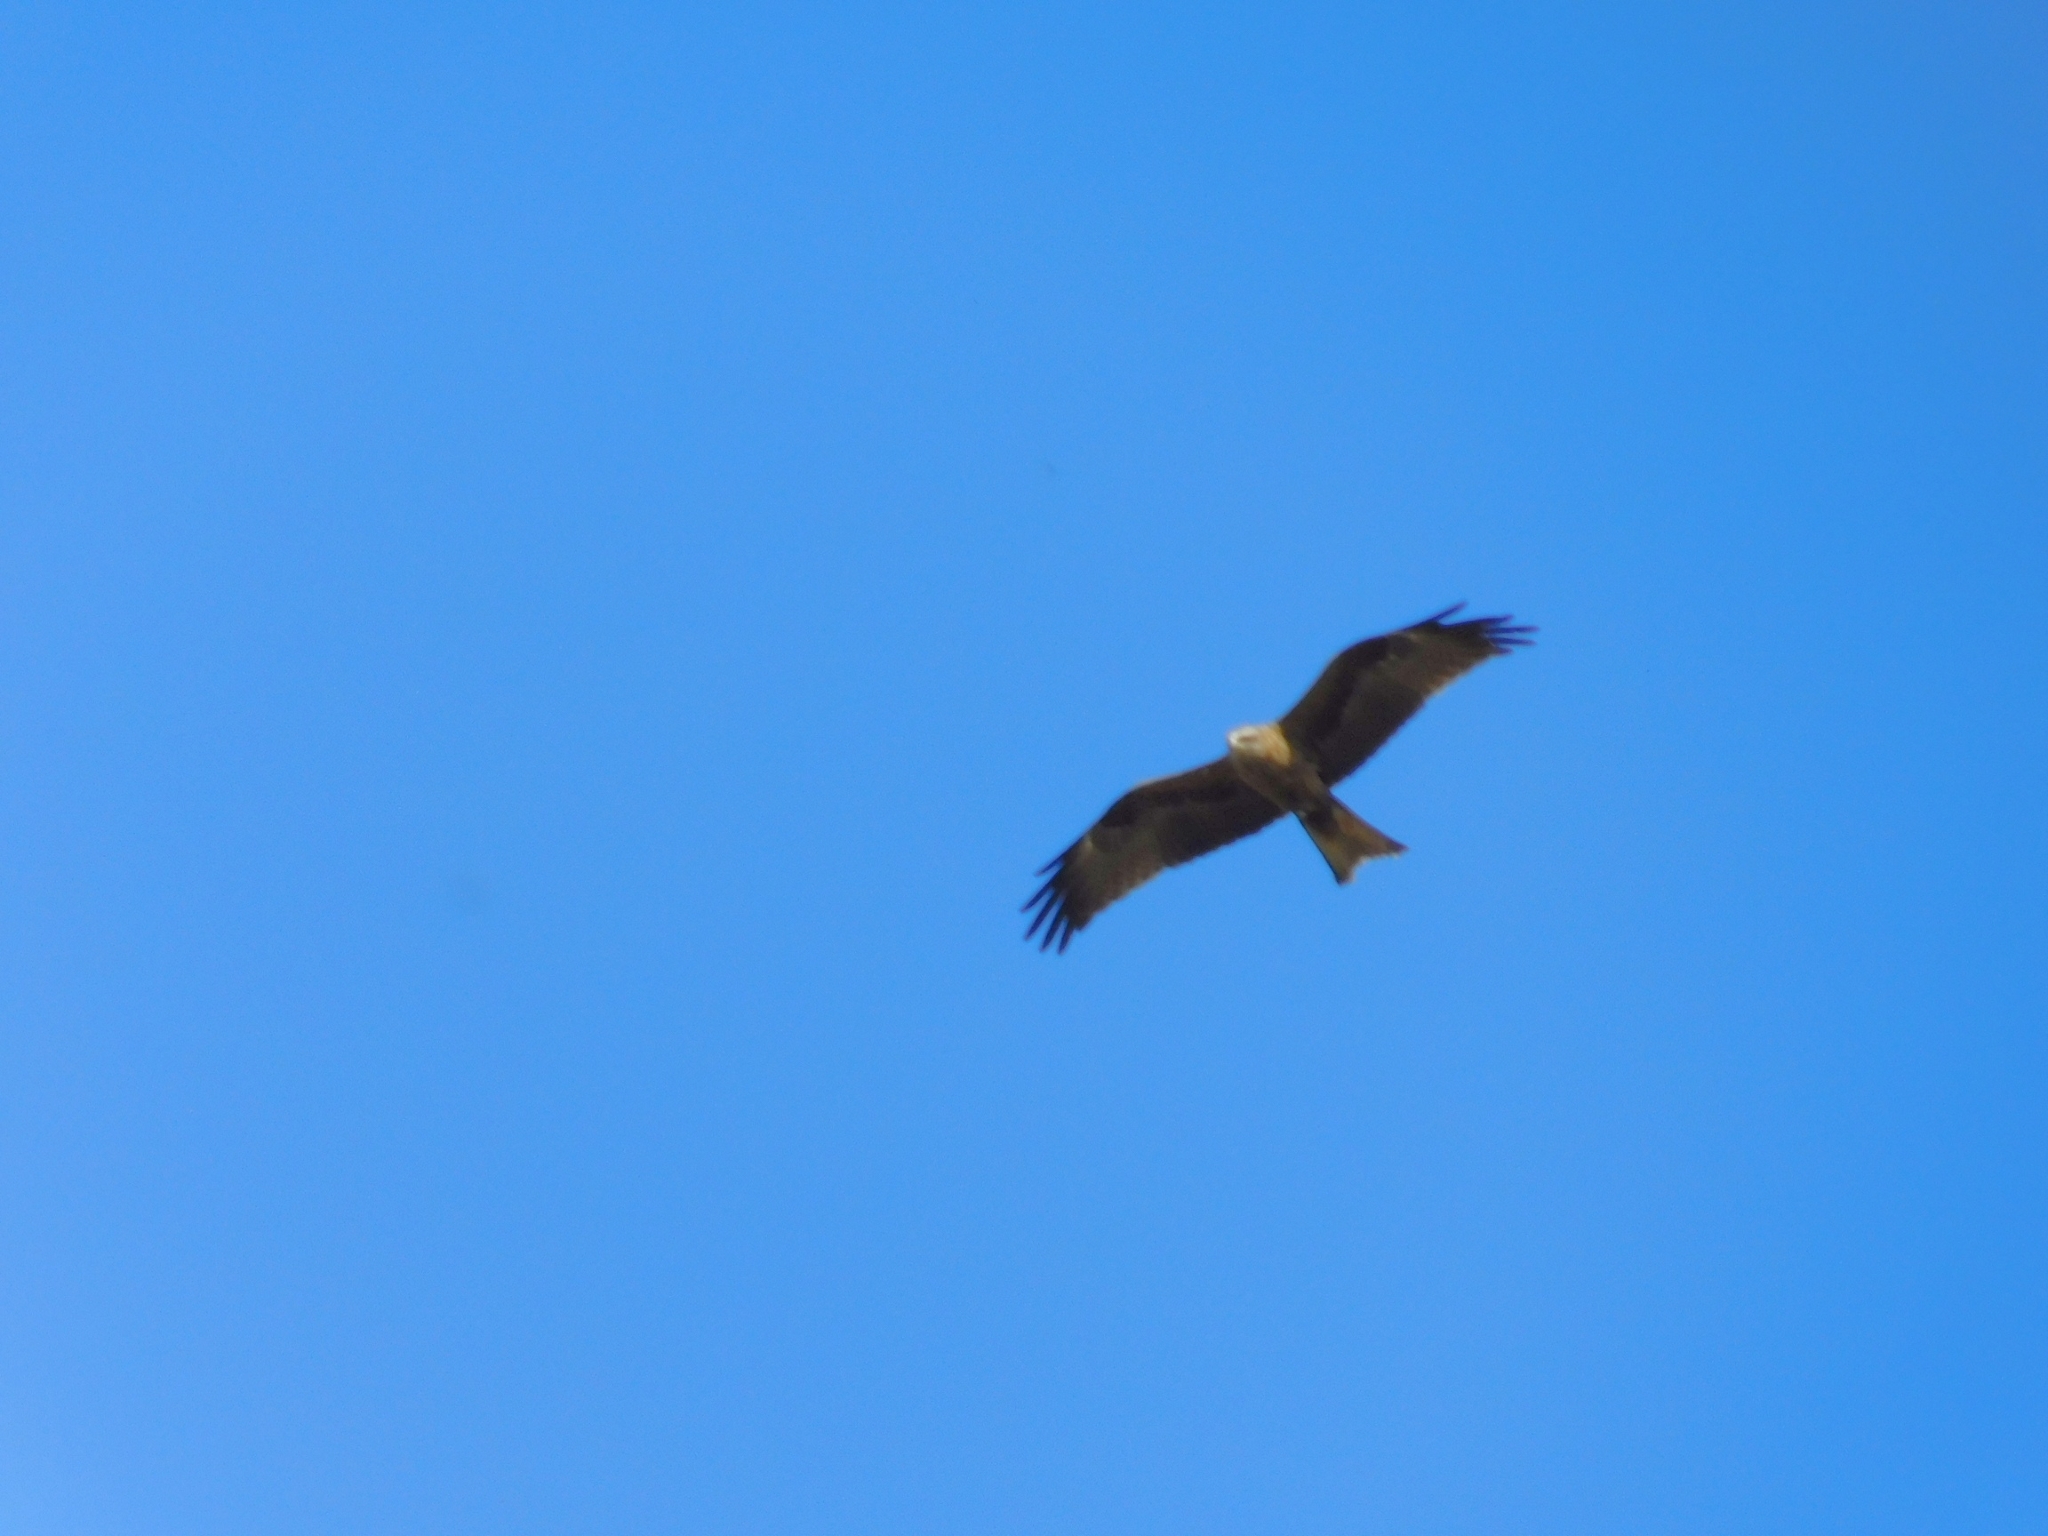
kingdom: Animalia
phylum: Chordata
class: Aves
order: Accipitriformes
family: Accipitridae
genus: Milvus
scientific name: Milvus migrans
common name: Black kite
